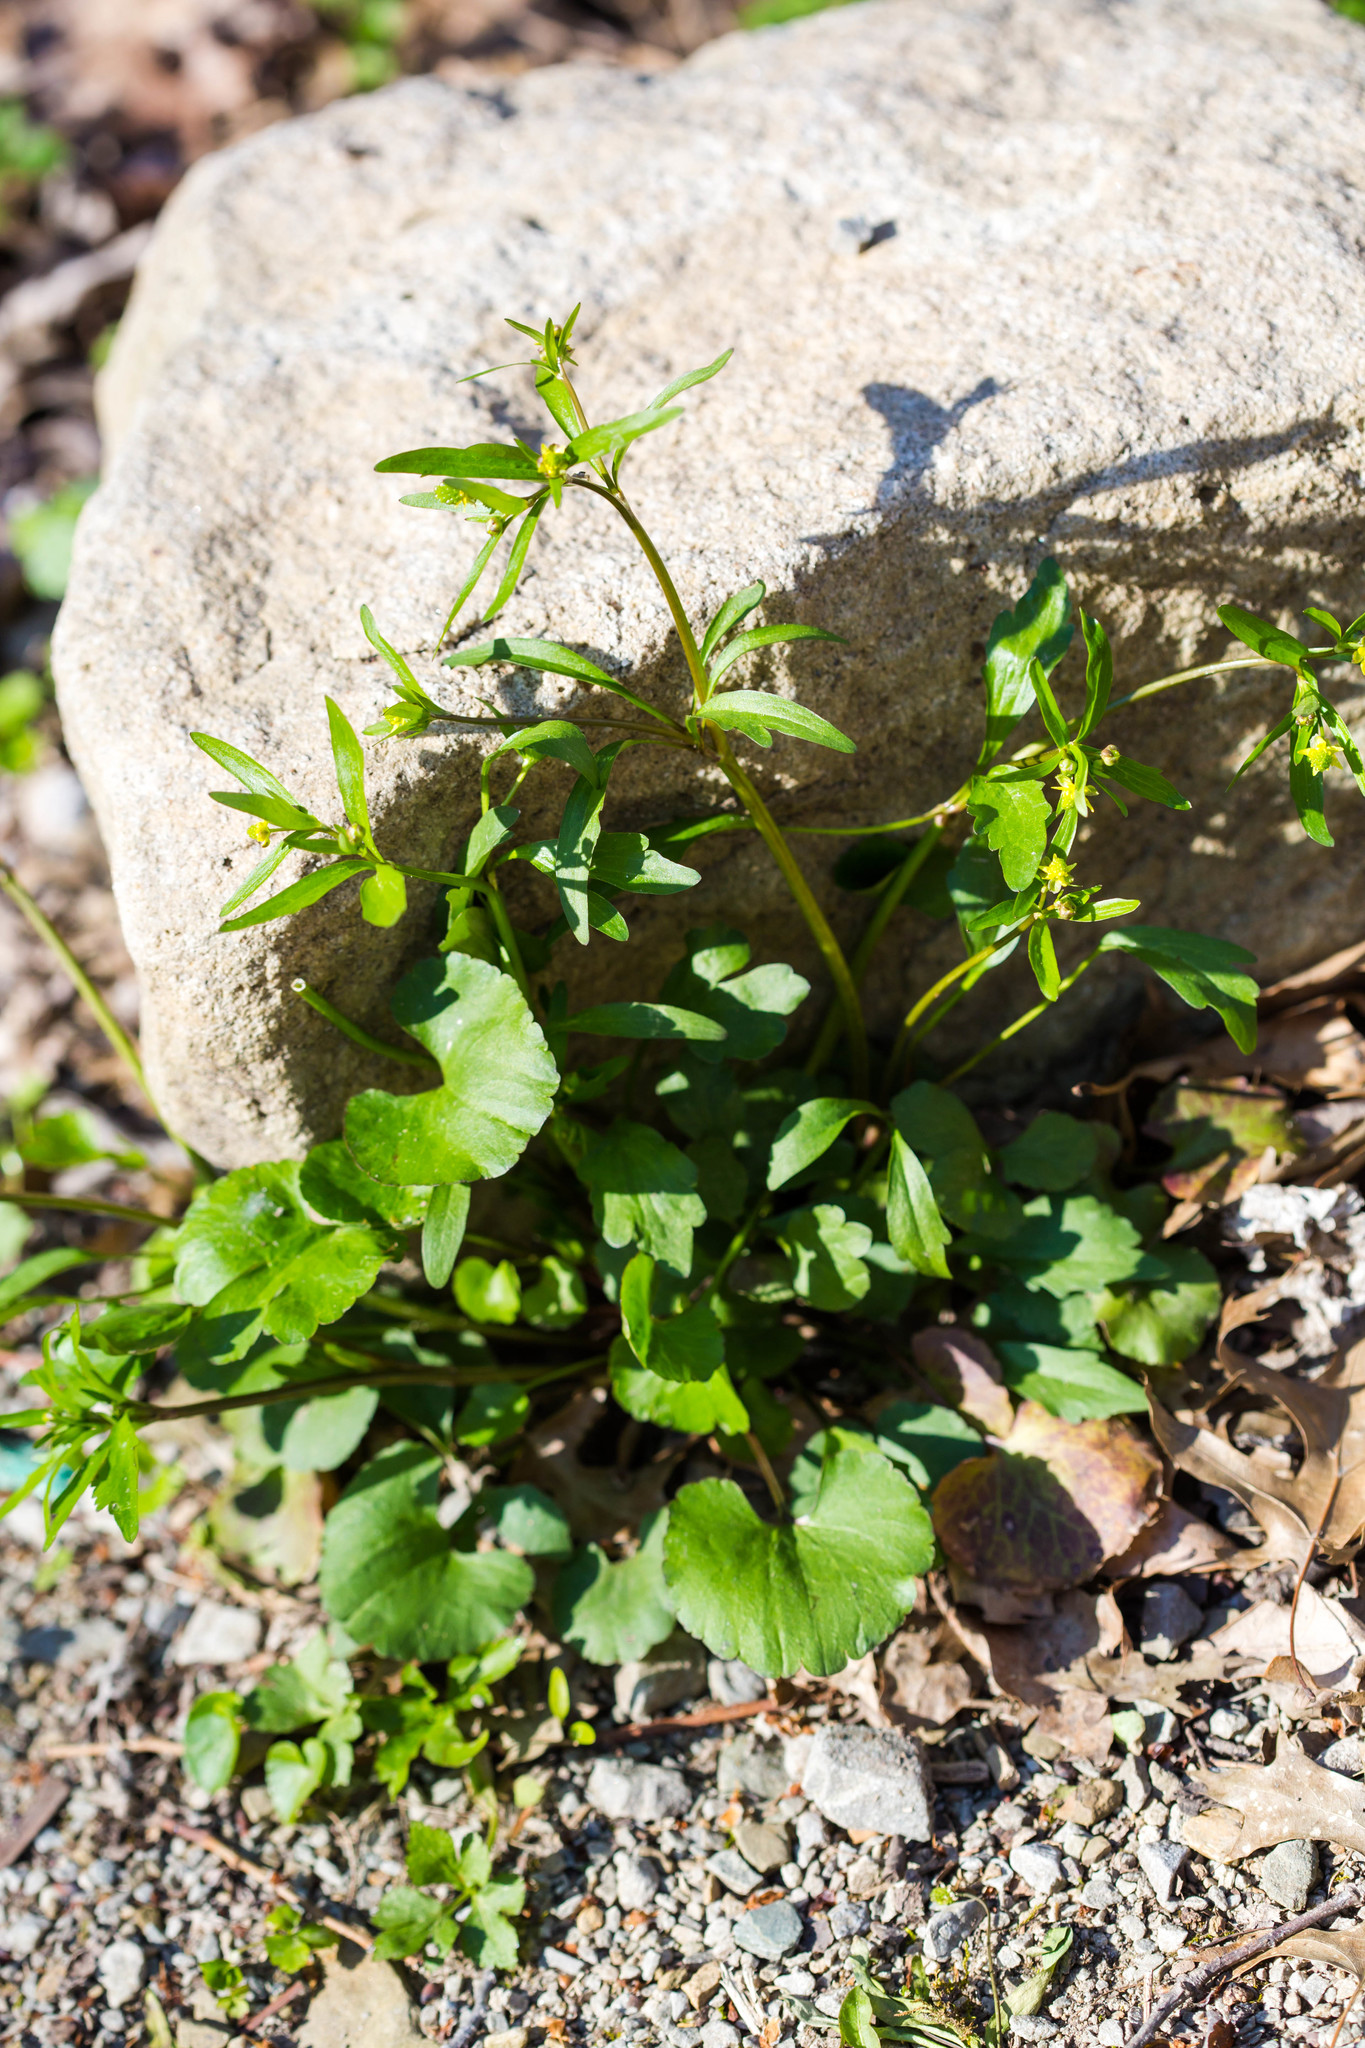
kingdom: Plantae
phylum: Tracheophyta
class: Magnoliopsida
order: Ranunculales
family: Ranunculaceae
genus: Ranunculus
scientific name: Ranunculus abortivus
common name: Early wood buttercup
